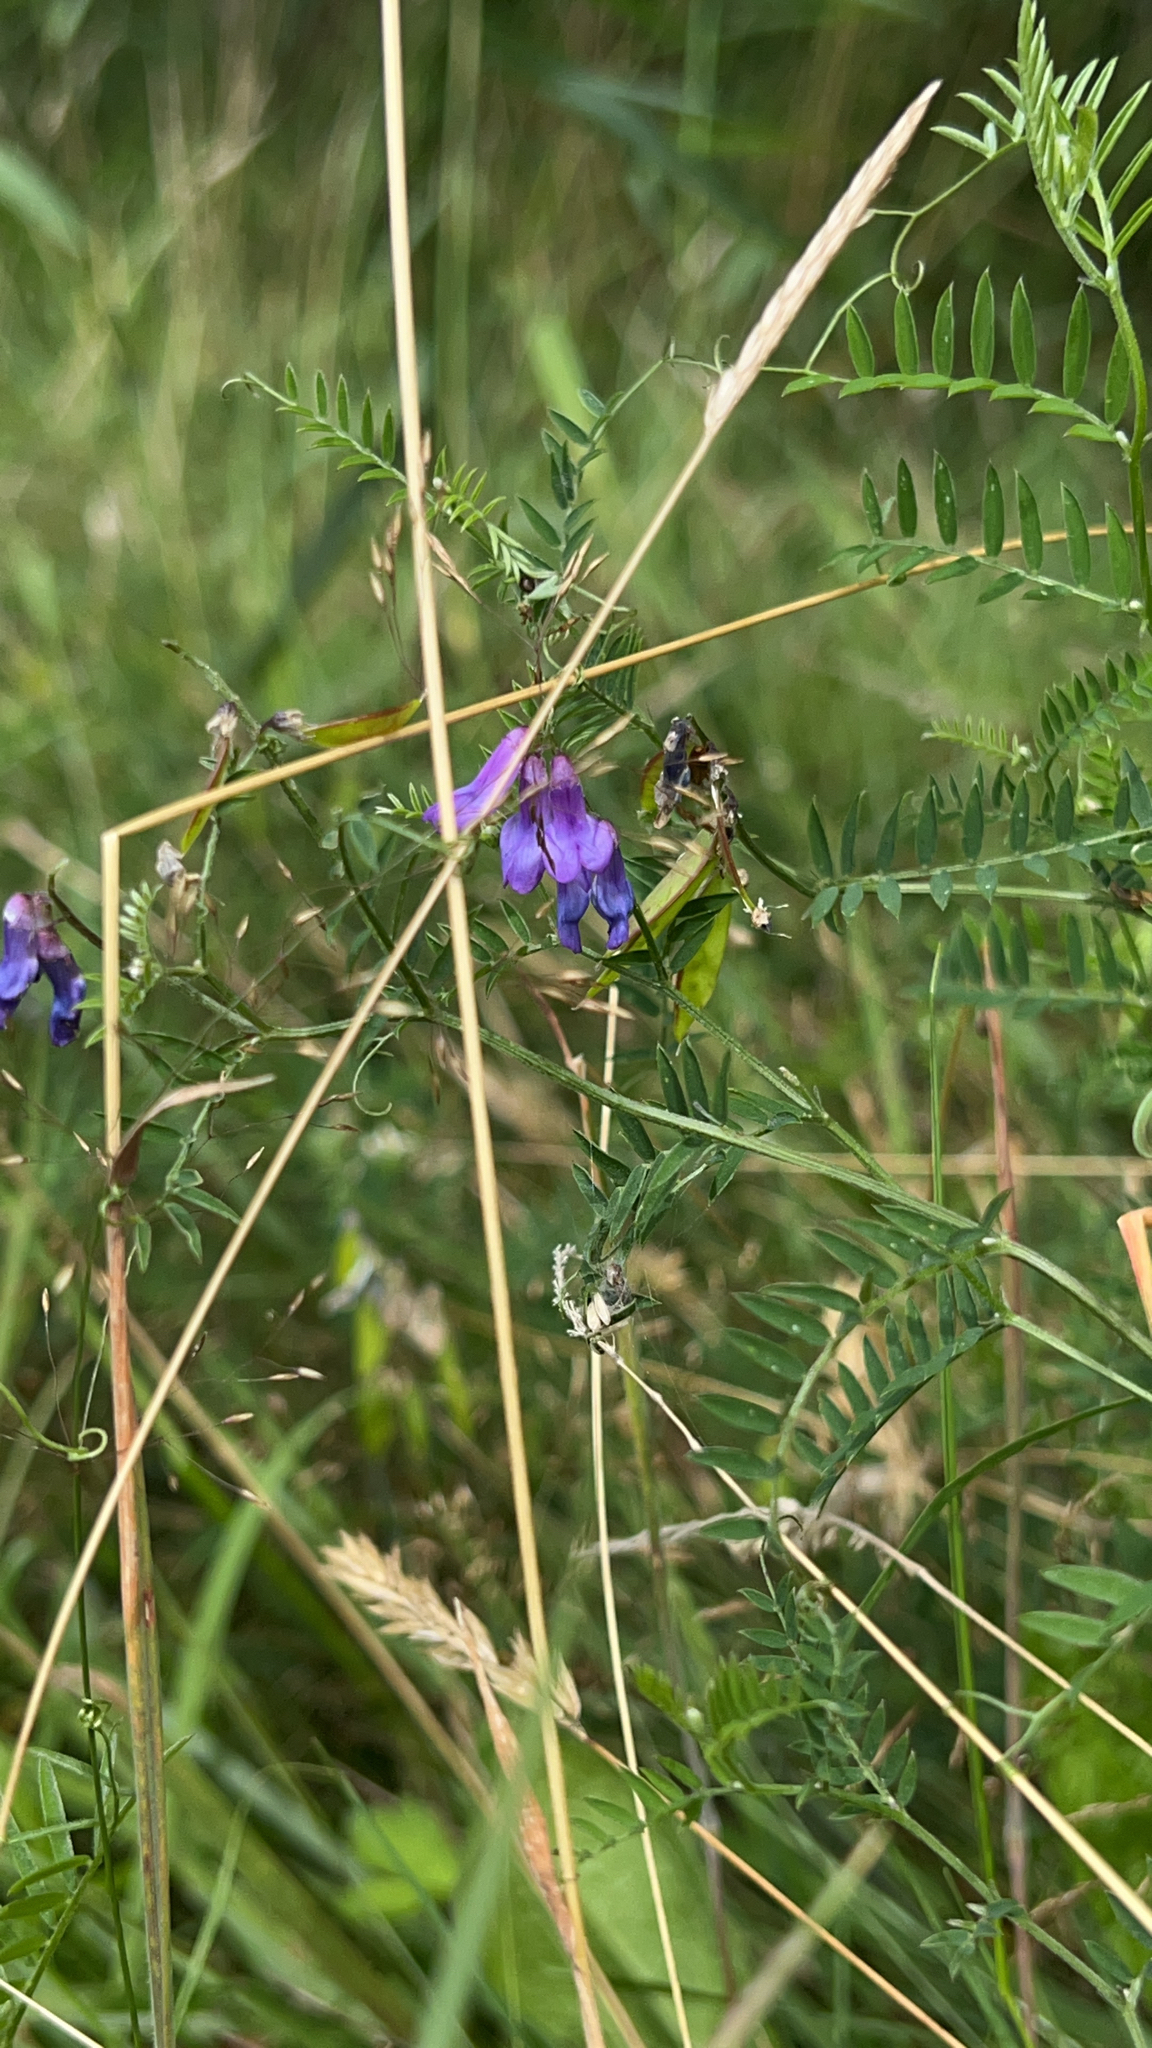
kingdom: Plantae
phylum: Tracheophyta
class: Magnoliopsida
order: Fabales
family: Fabaceae
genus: Vicia
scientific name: Vicia cracca
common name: Bird vetch
